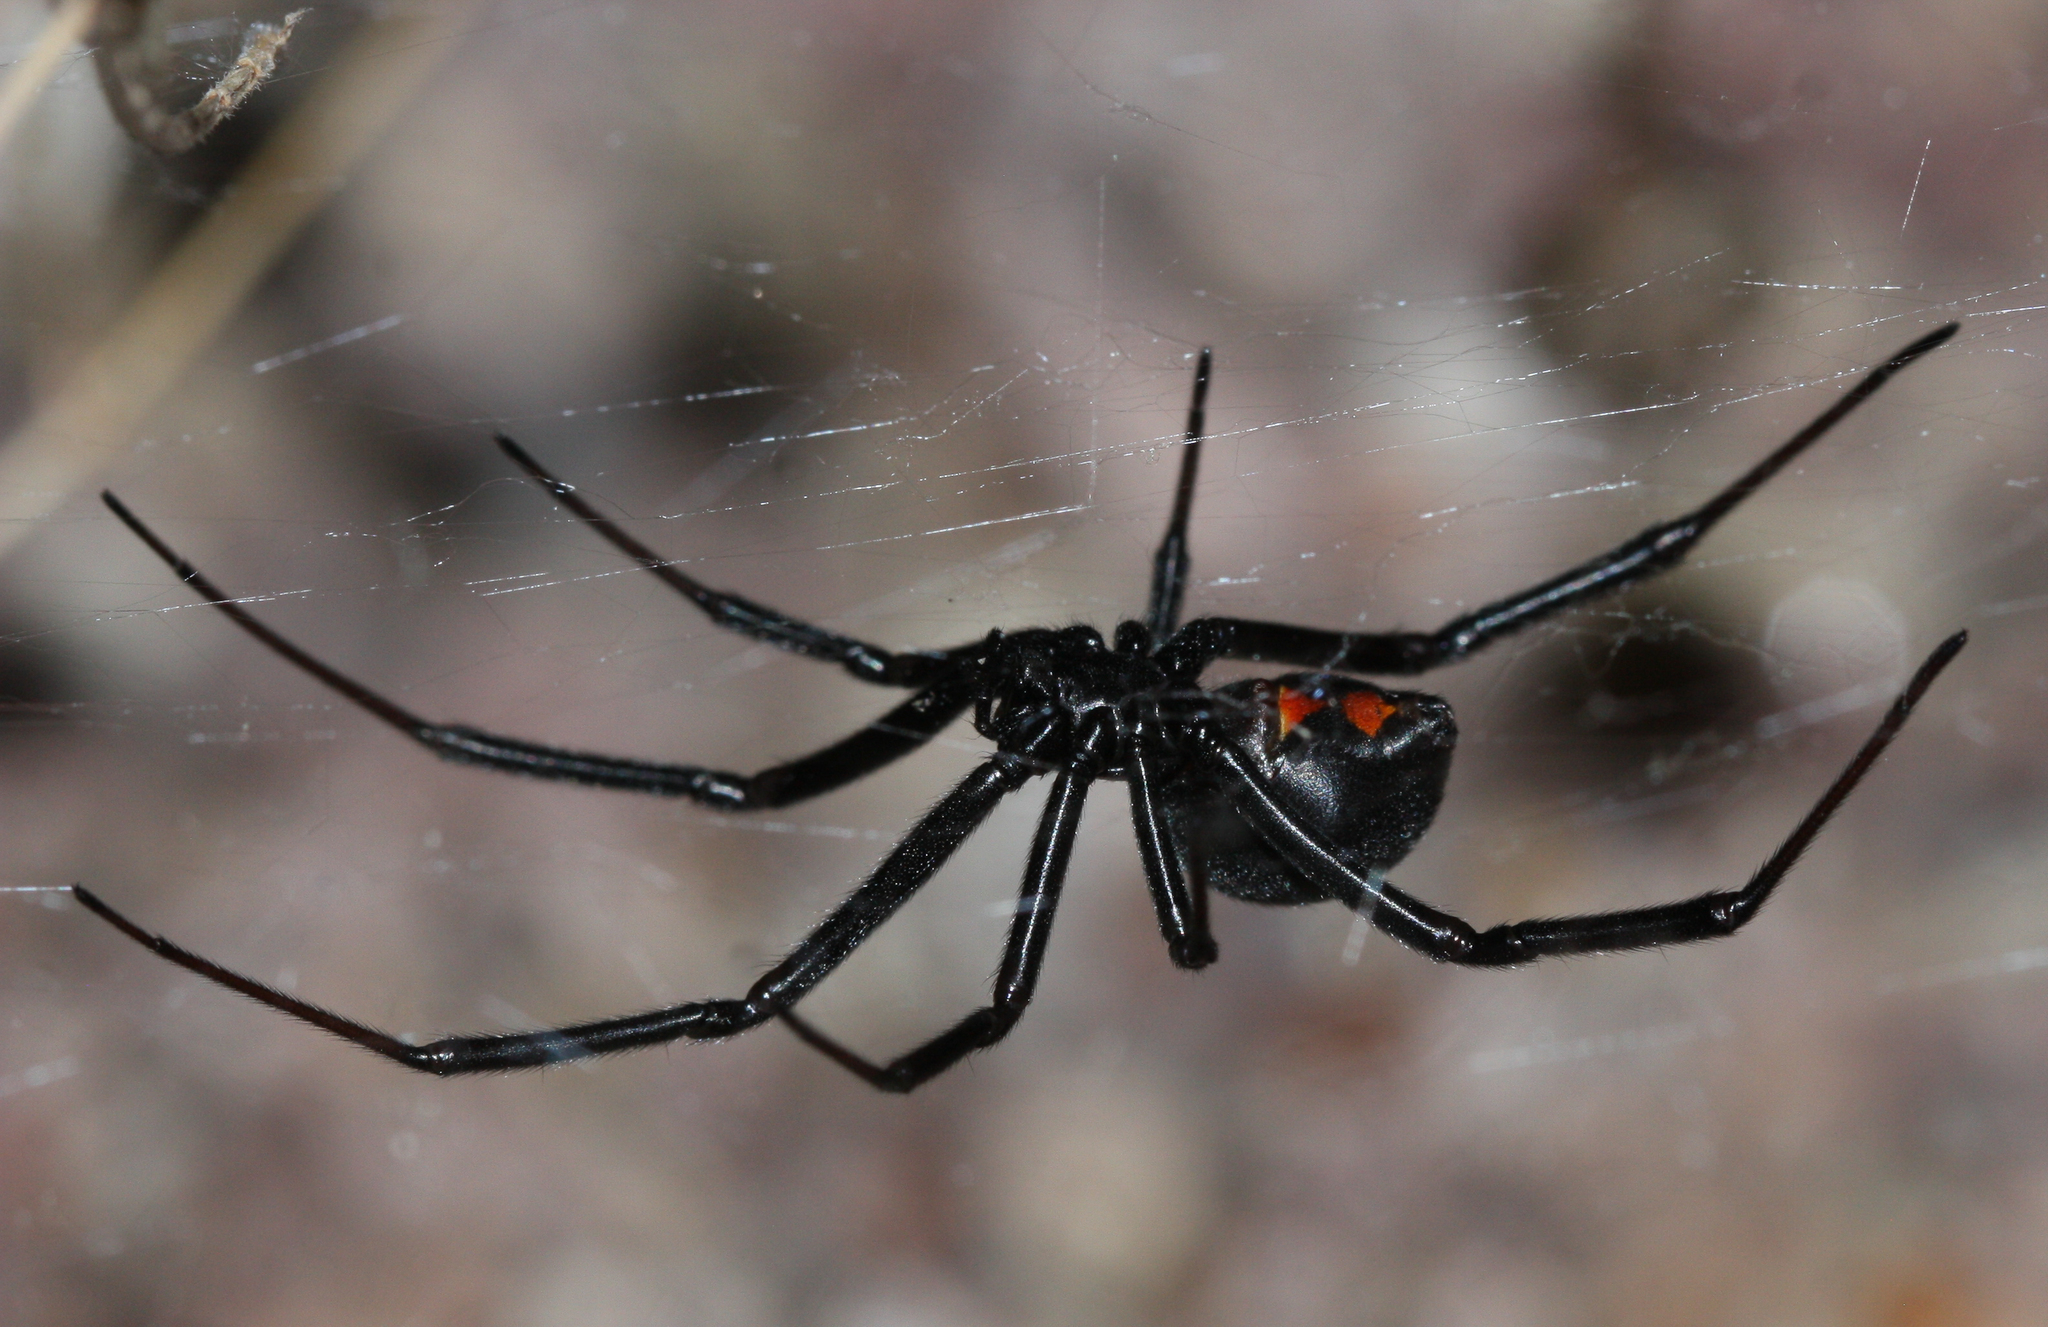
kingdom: Animalia
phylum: Arthropoda
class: Arachnida
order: Araneae
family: Theridiidae
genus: Latrodectus
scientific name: Latrodectus hesperus
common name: Western black widow
